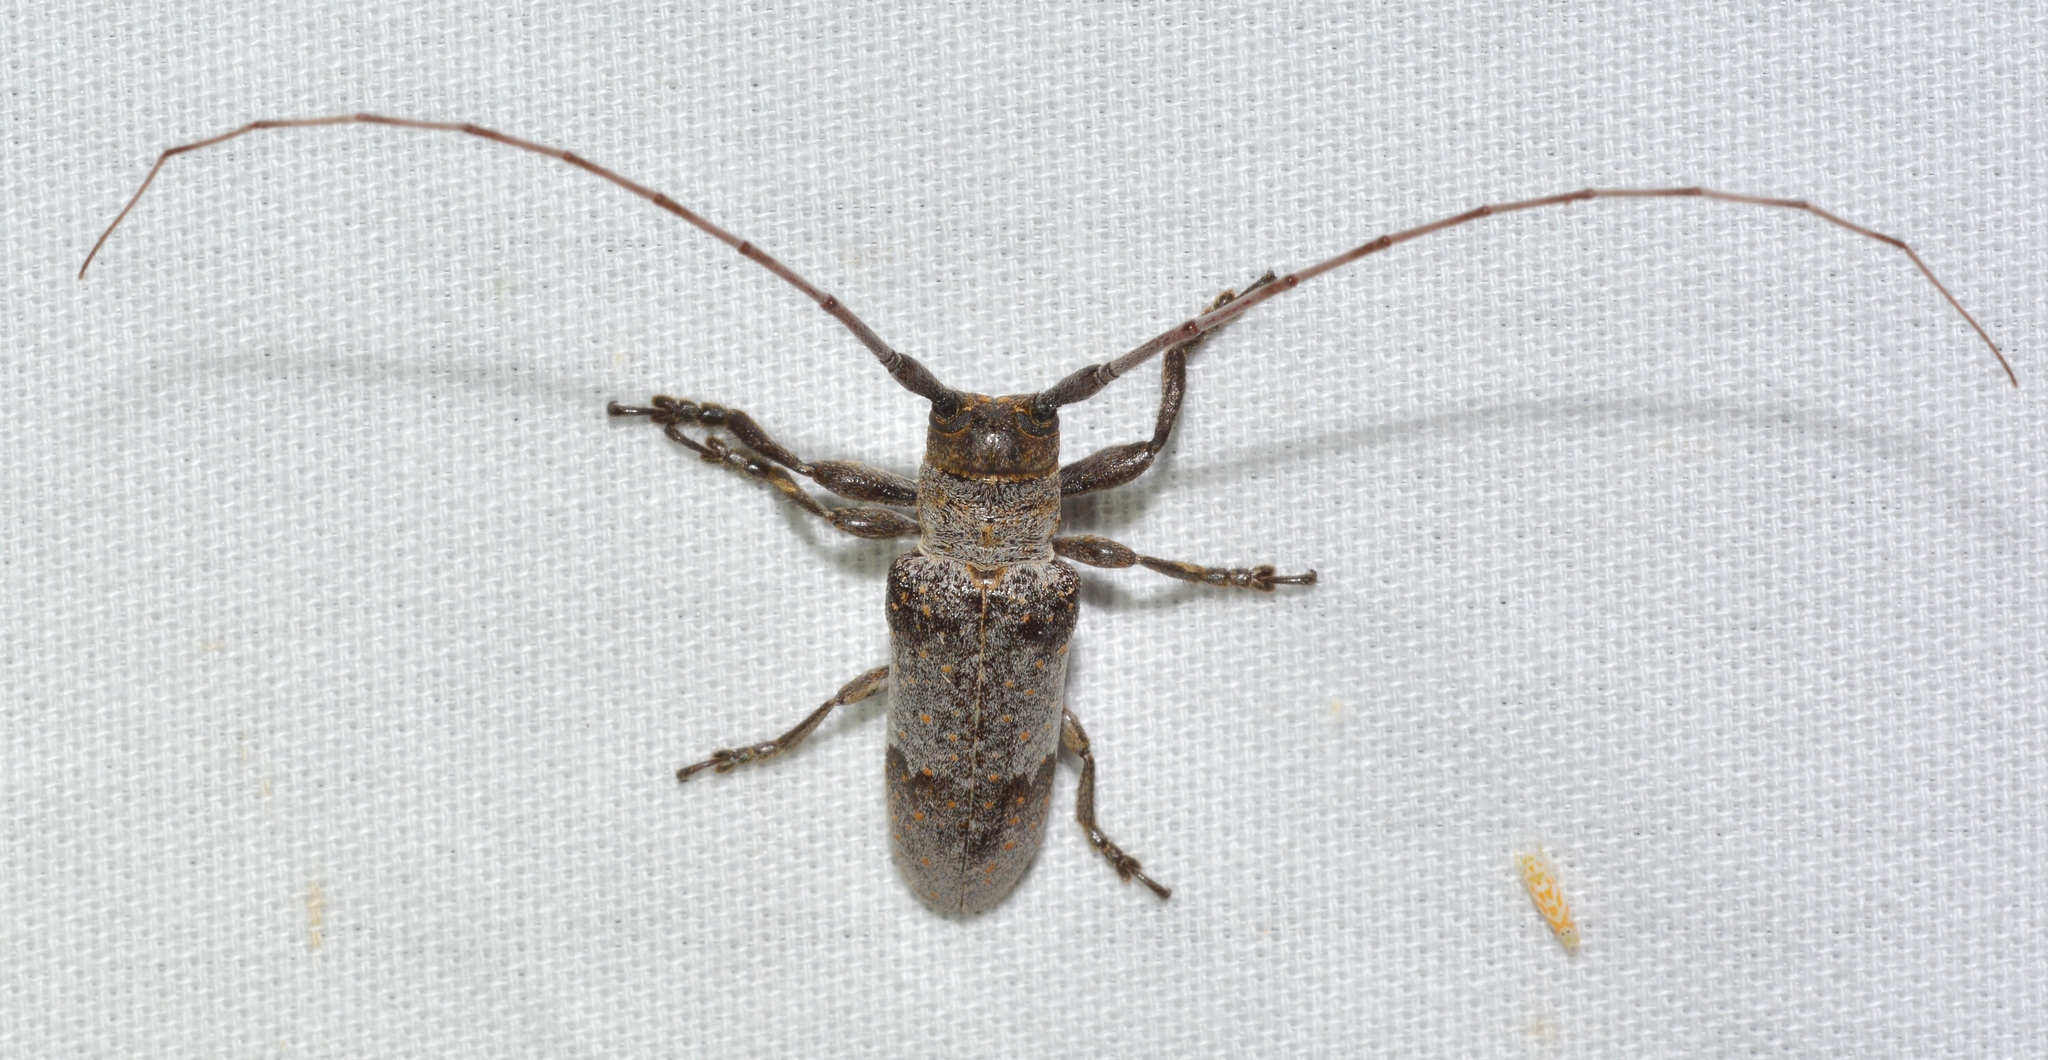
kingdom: Animalia
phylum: Arthropoda
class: Insecta
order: Coleoptera
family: Cerambycidae
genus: Oncideres
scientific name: Oncideres cingulata
